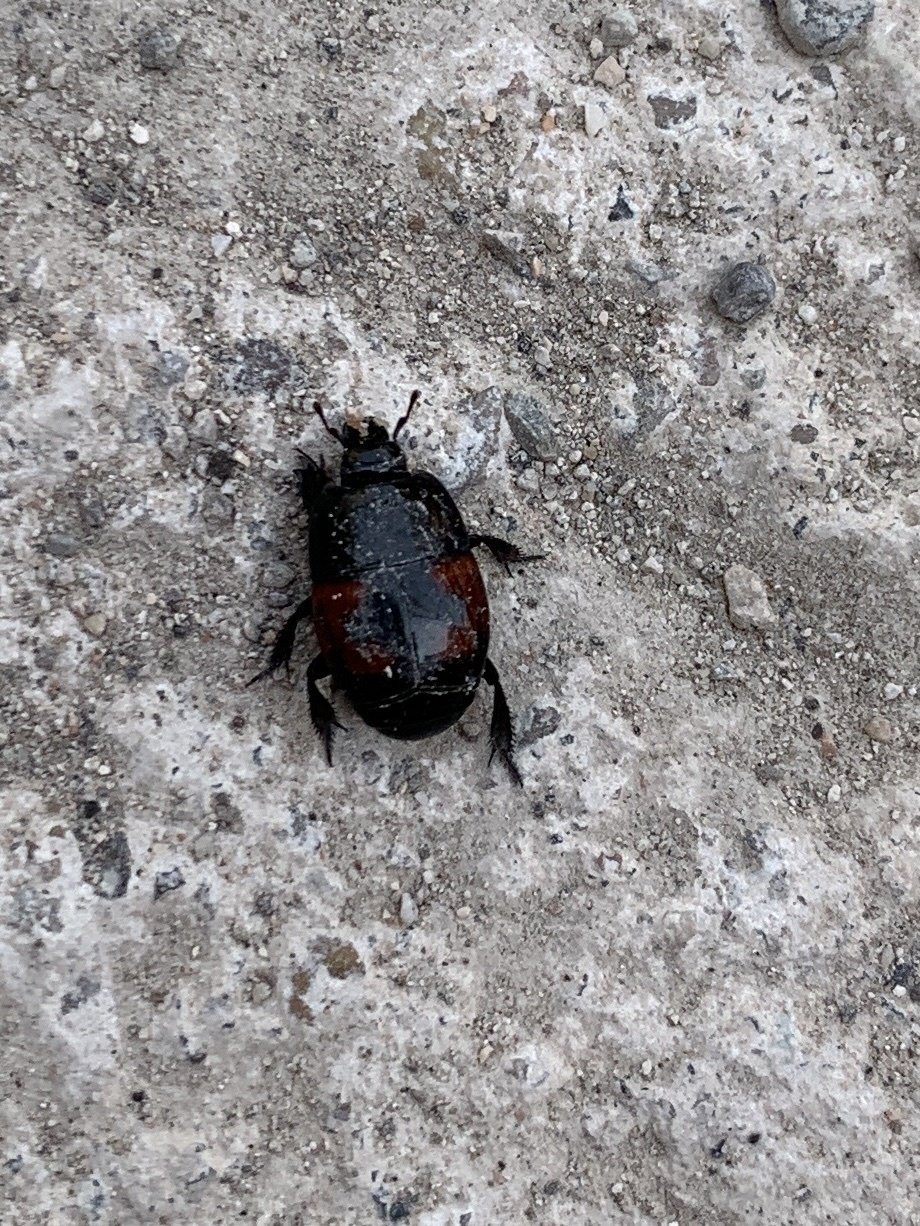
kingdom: Animalia
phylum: Arthropoda
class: Insecta
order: Coleoptera
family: Histeridae
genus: Hister
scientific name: Hister quadrimaculatus
